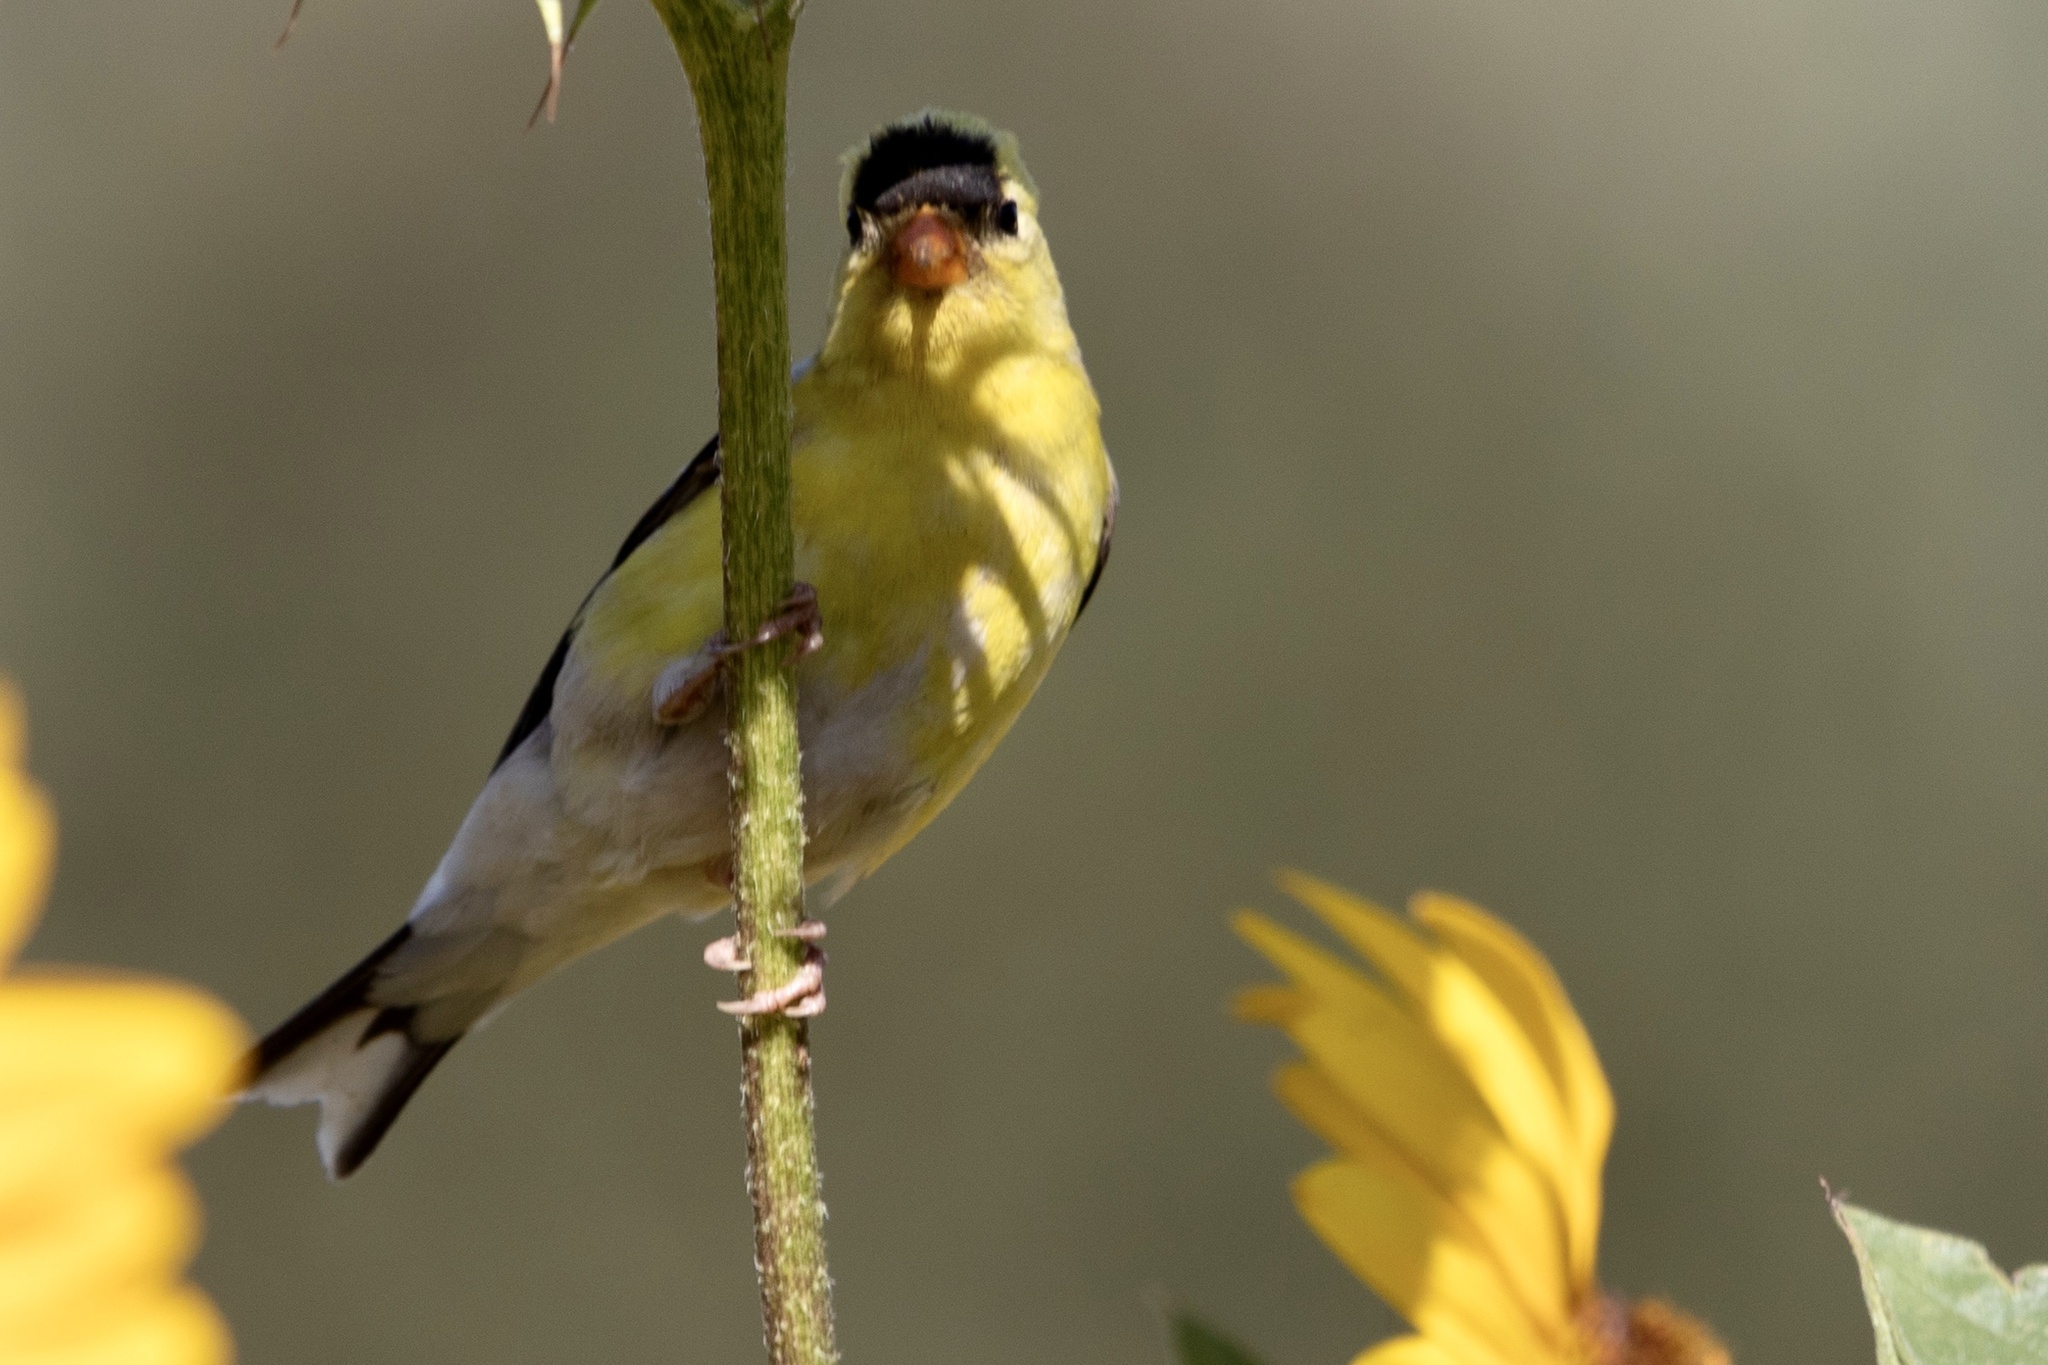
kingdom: Animalia
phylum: Chordata
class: Aves
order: Passeriformes
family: Fringillidae
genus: Spinus
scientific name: Spinus tristis
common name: American goldfinch
